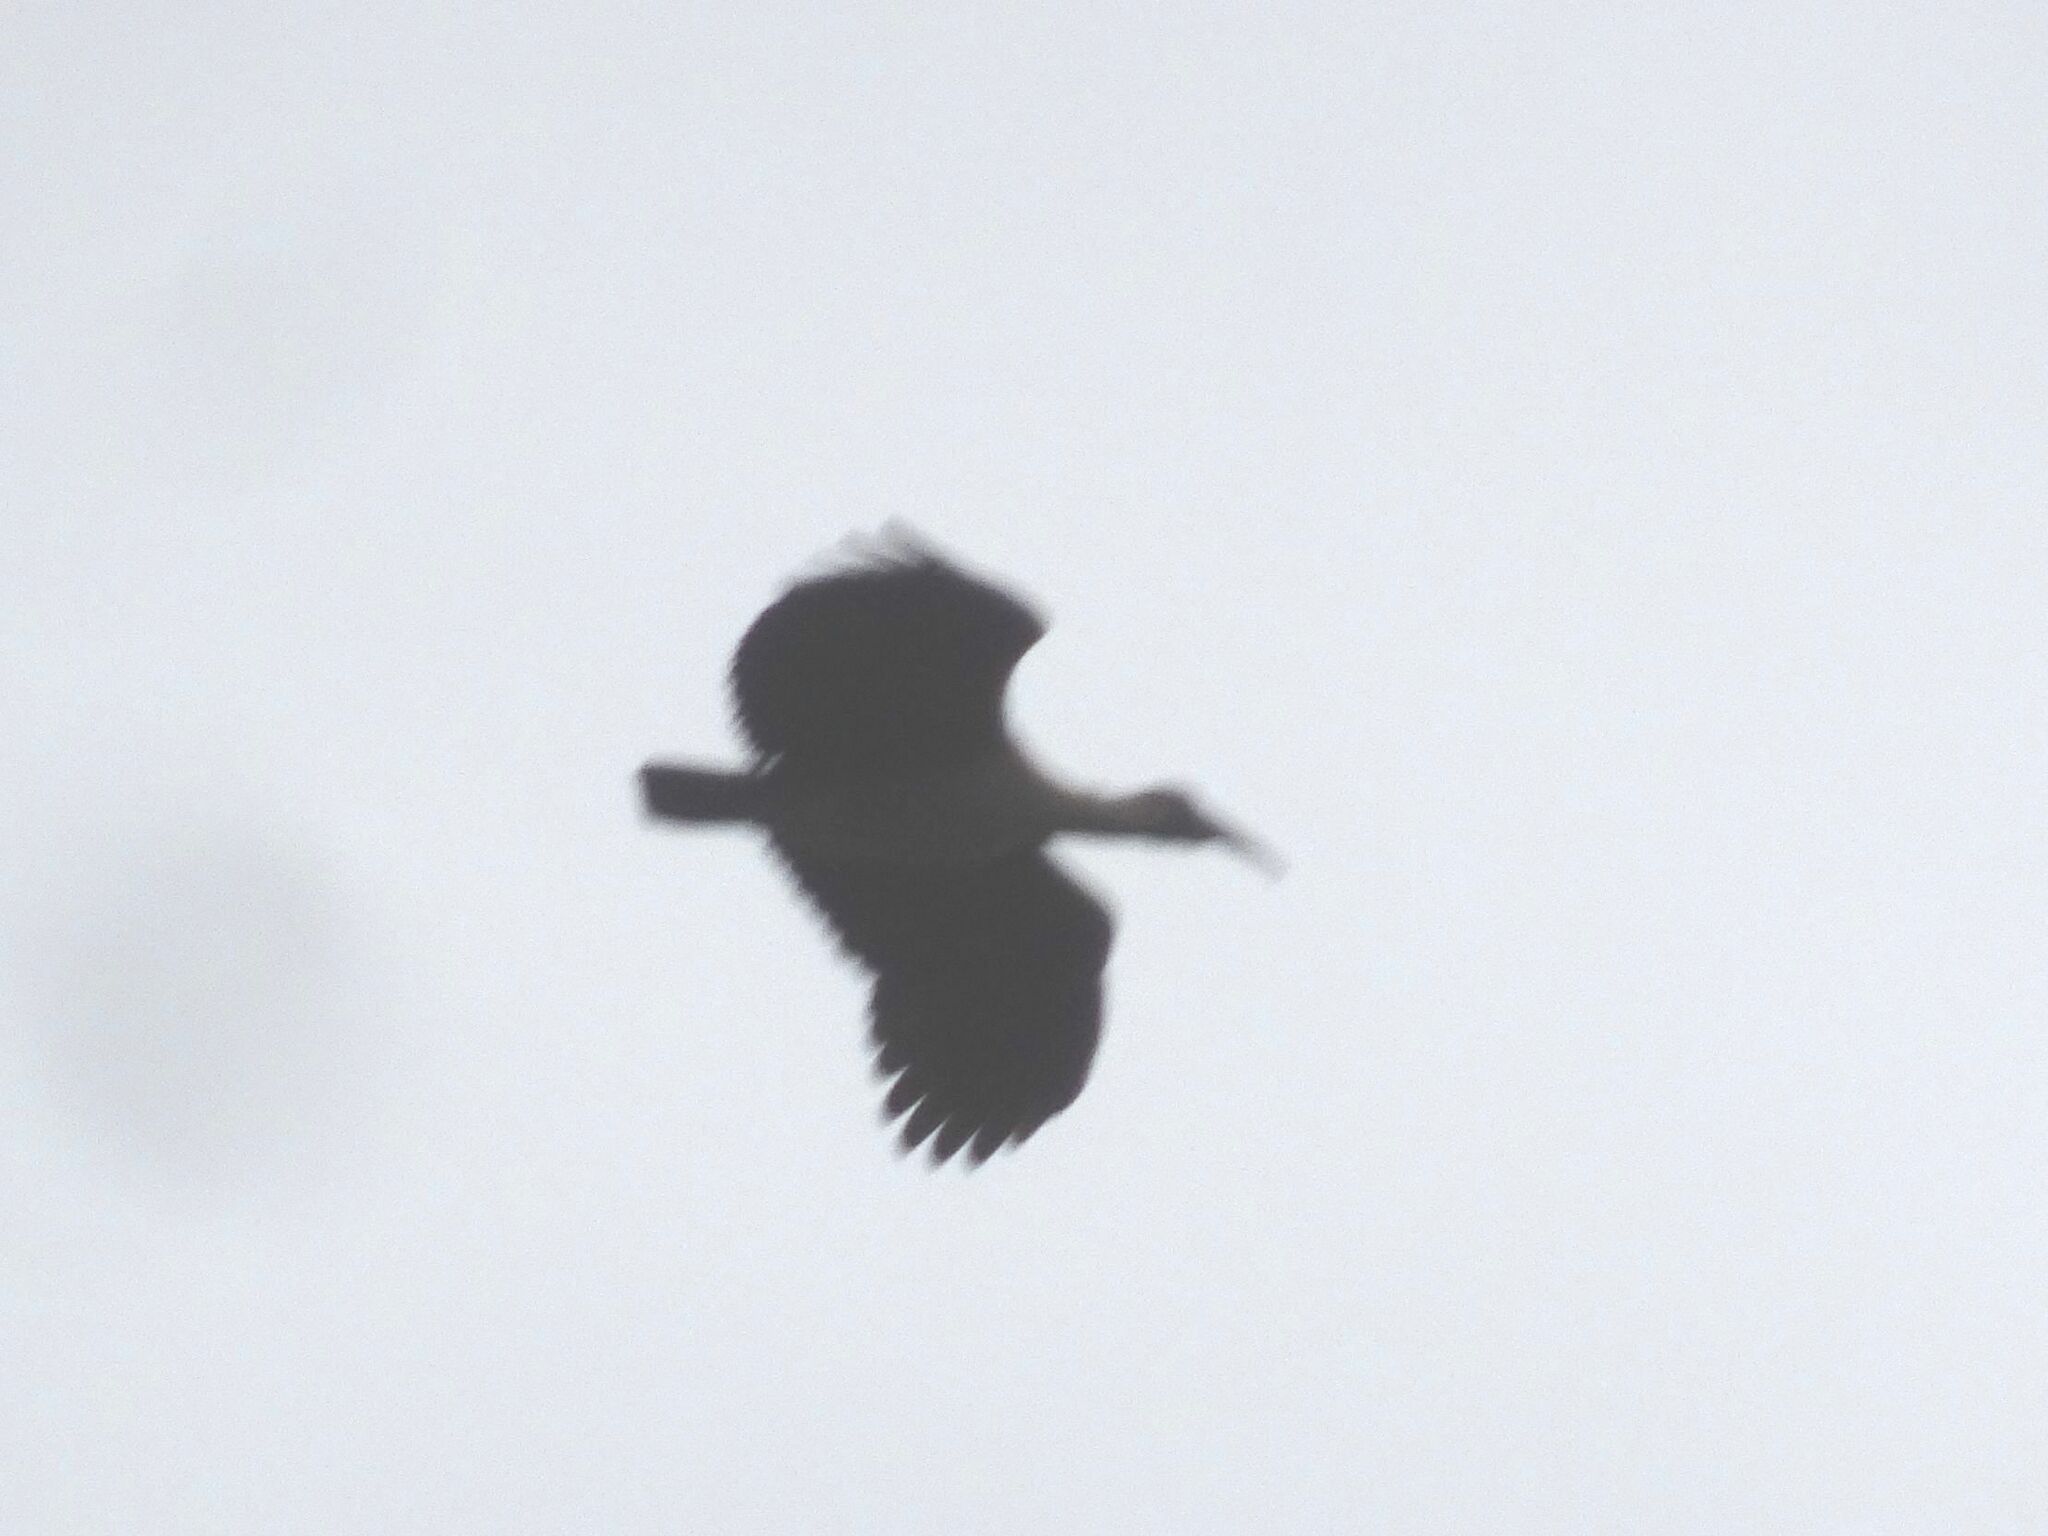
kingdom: Animalia
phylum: Chordata
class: Aves
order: Pelecaniformes
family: Threskiornithidae
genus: Bostrychia
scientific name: Bostrychia hagedash
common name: Hadada ibis
